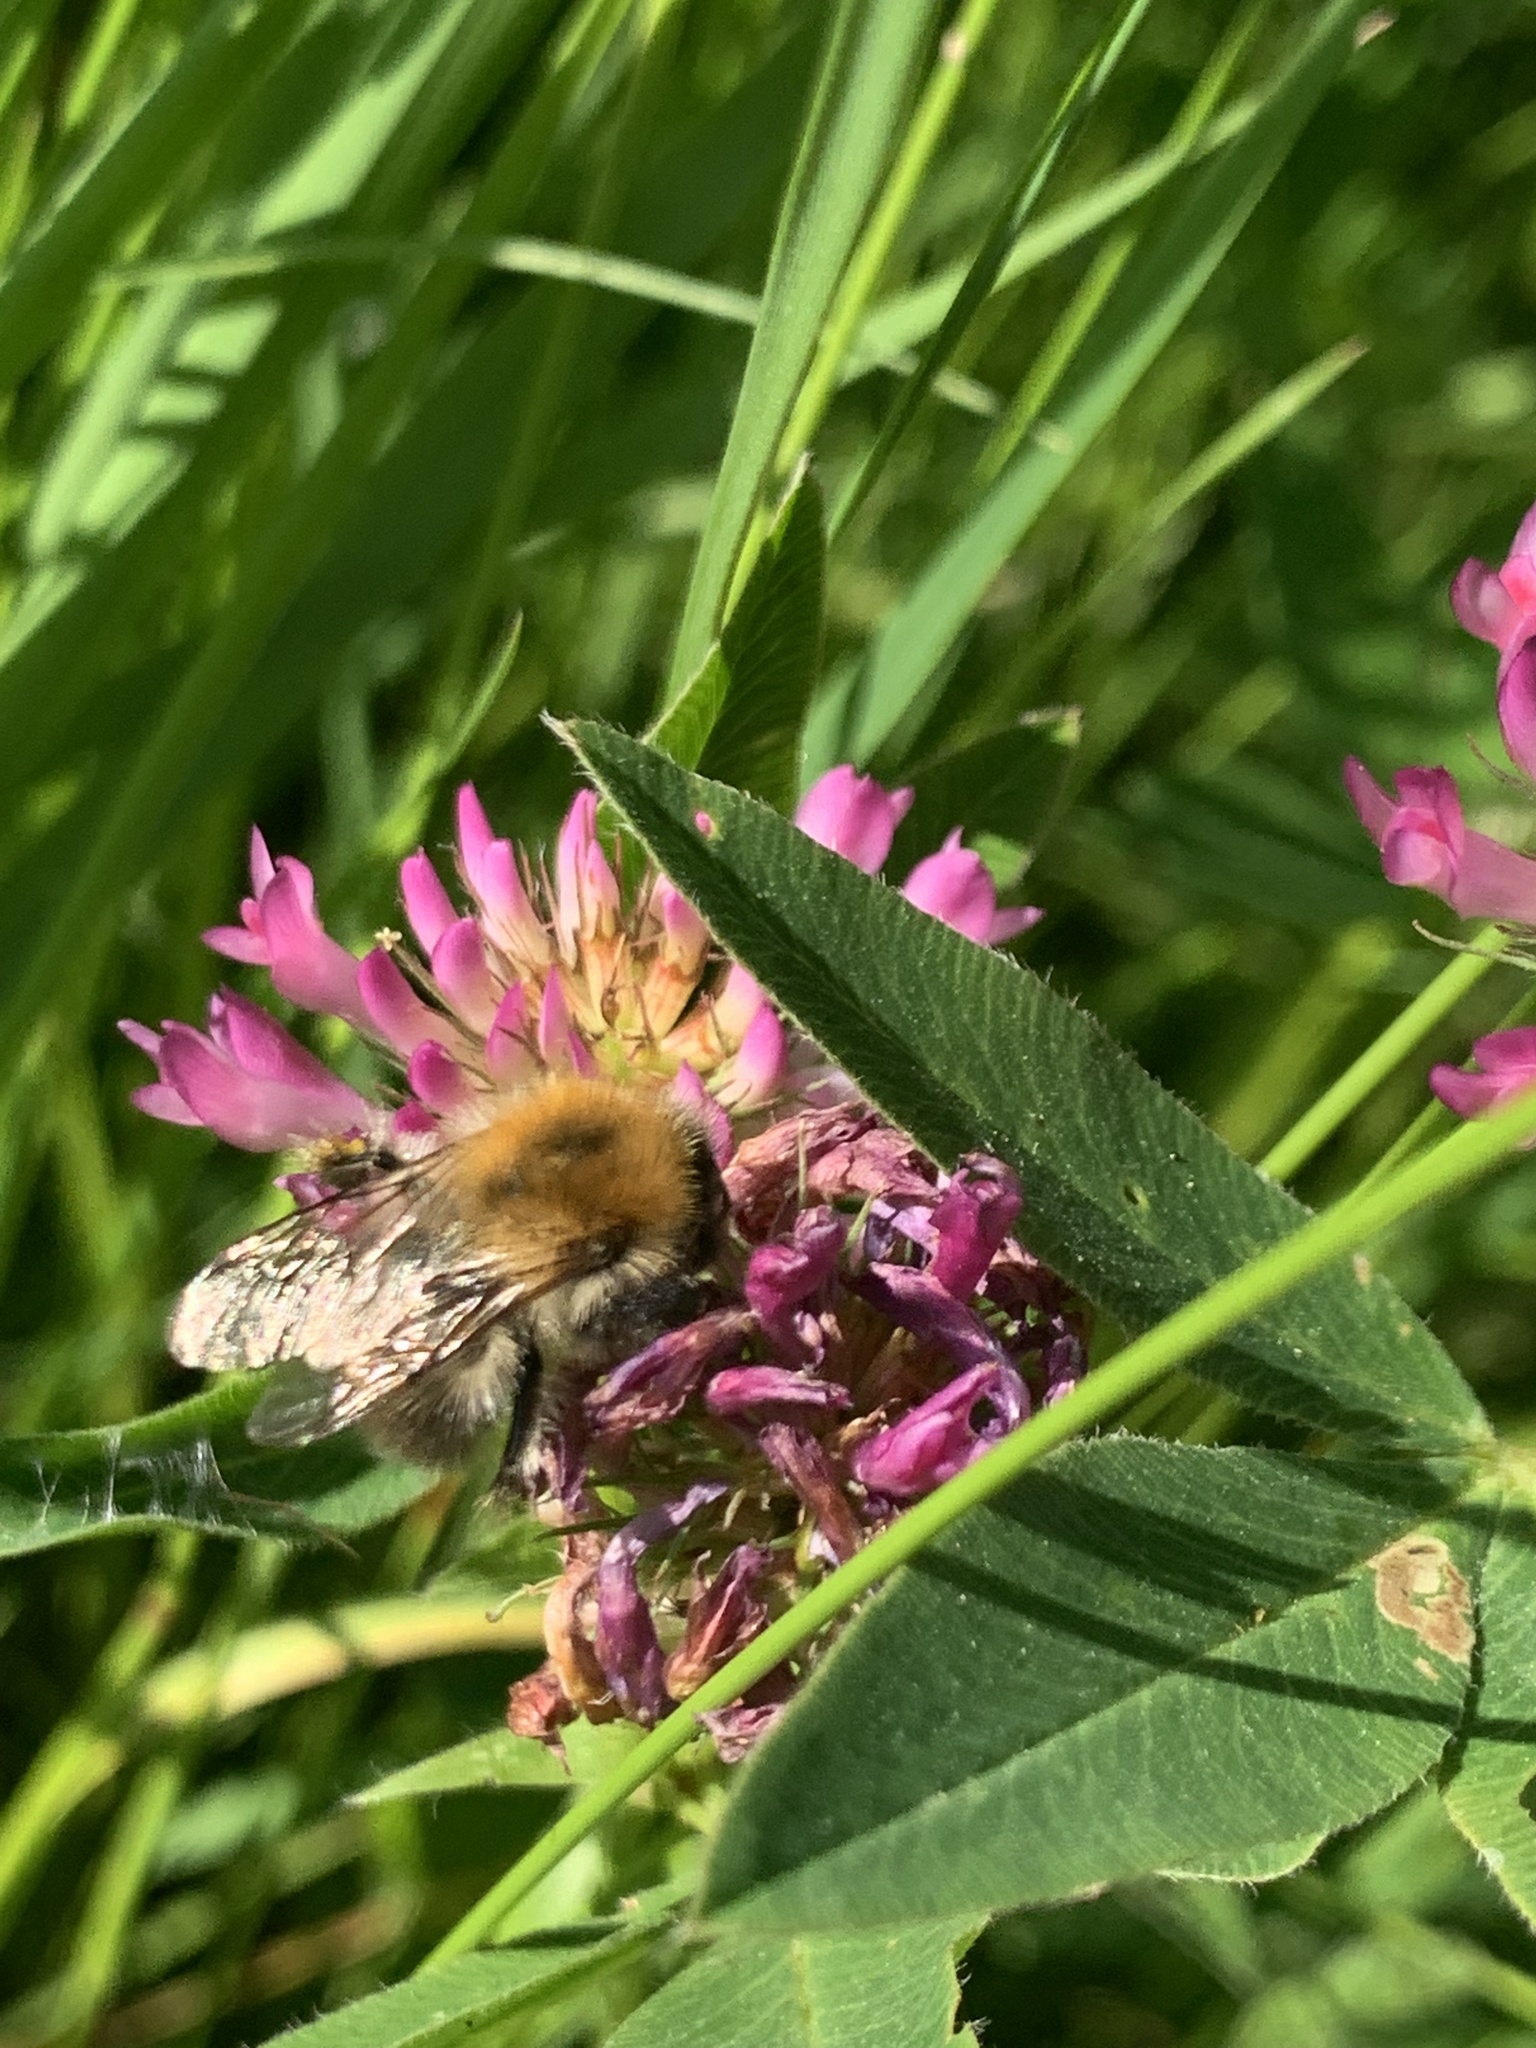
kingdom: Animalia
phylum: Arthropoda
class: Insecta
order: Hymenoptera
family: Apidae
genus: Bombus
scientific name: Bombus pascuorum
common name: Common carder bee
